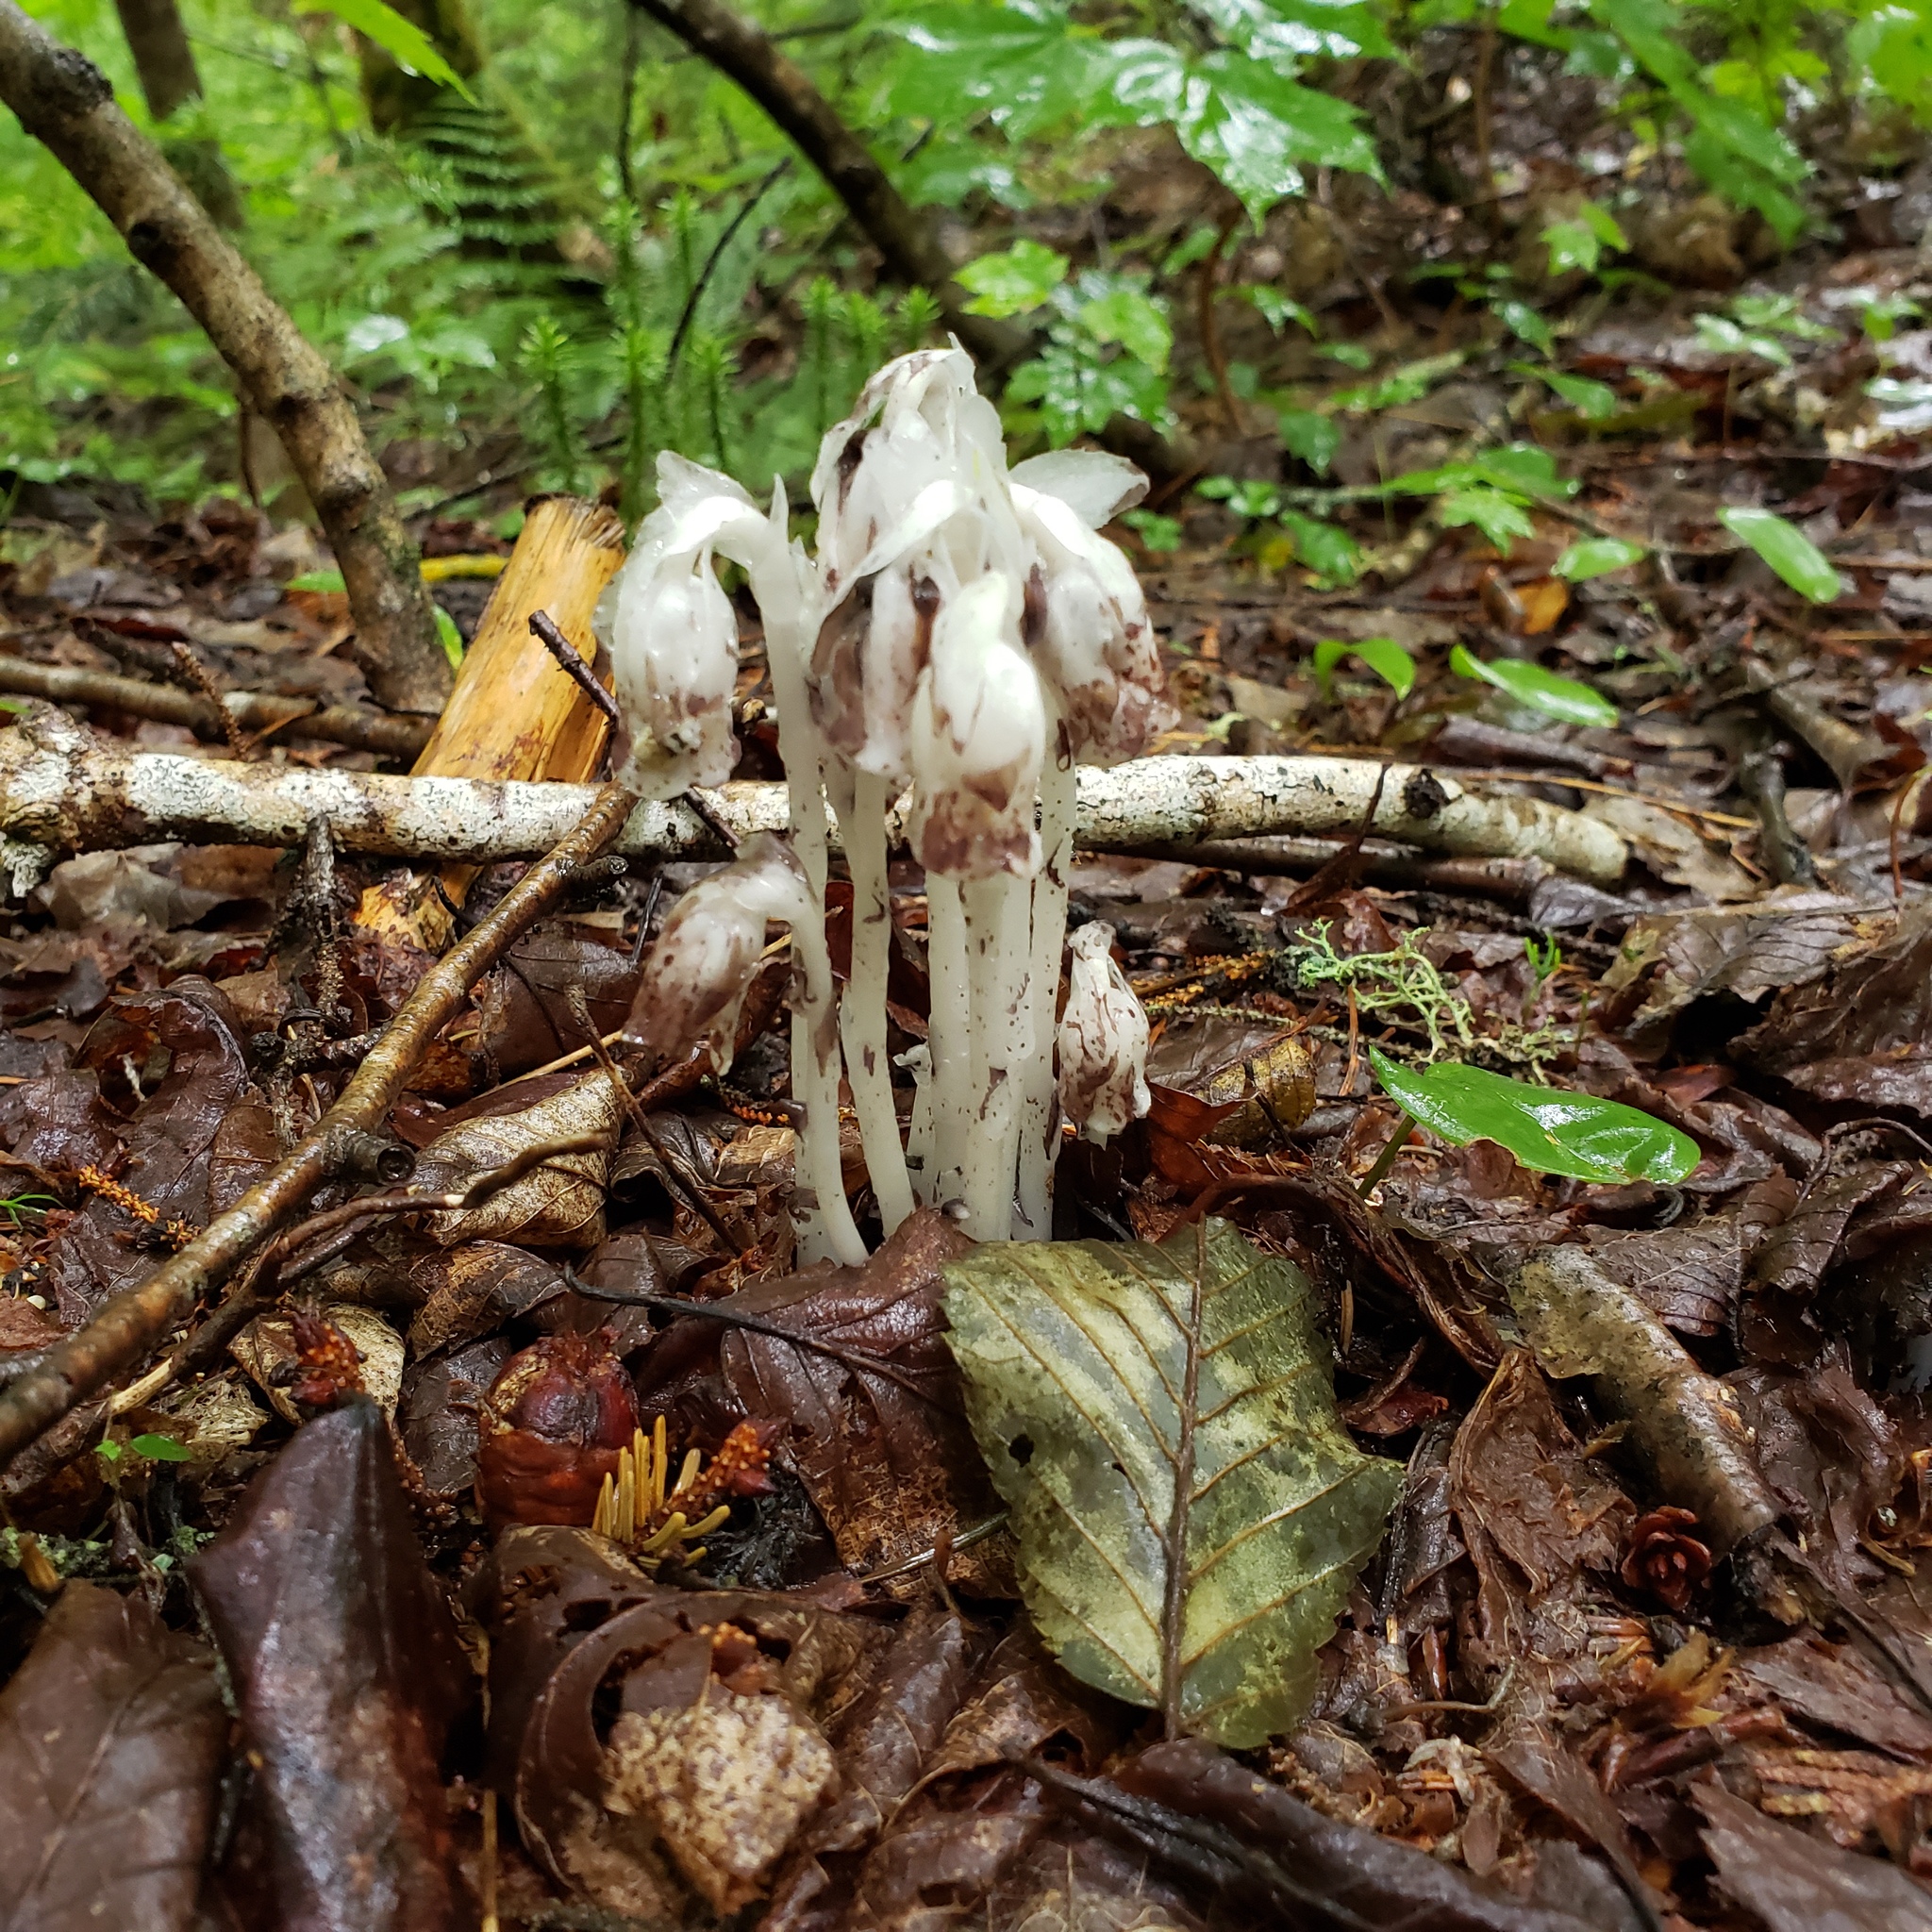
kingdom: Plantae
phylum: Tracheophyta
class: Magnoliopsida
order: Ericales
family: Ericaceae
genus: Monotropa
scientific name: Monotropa uniflora
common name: Convulsion root
